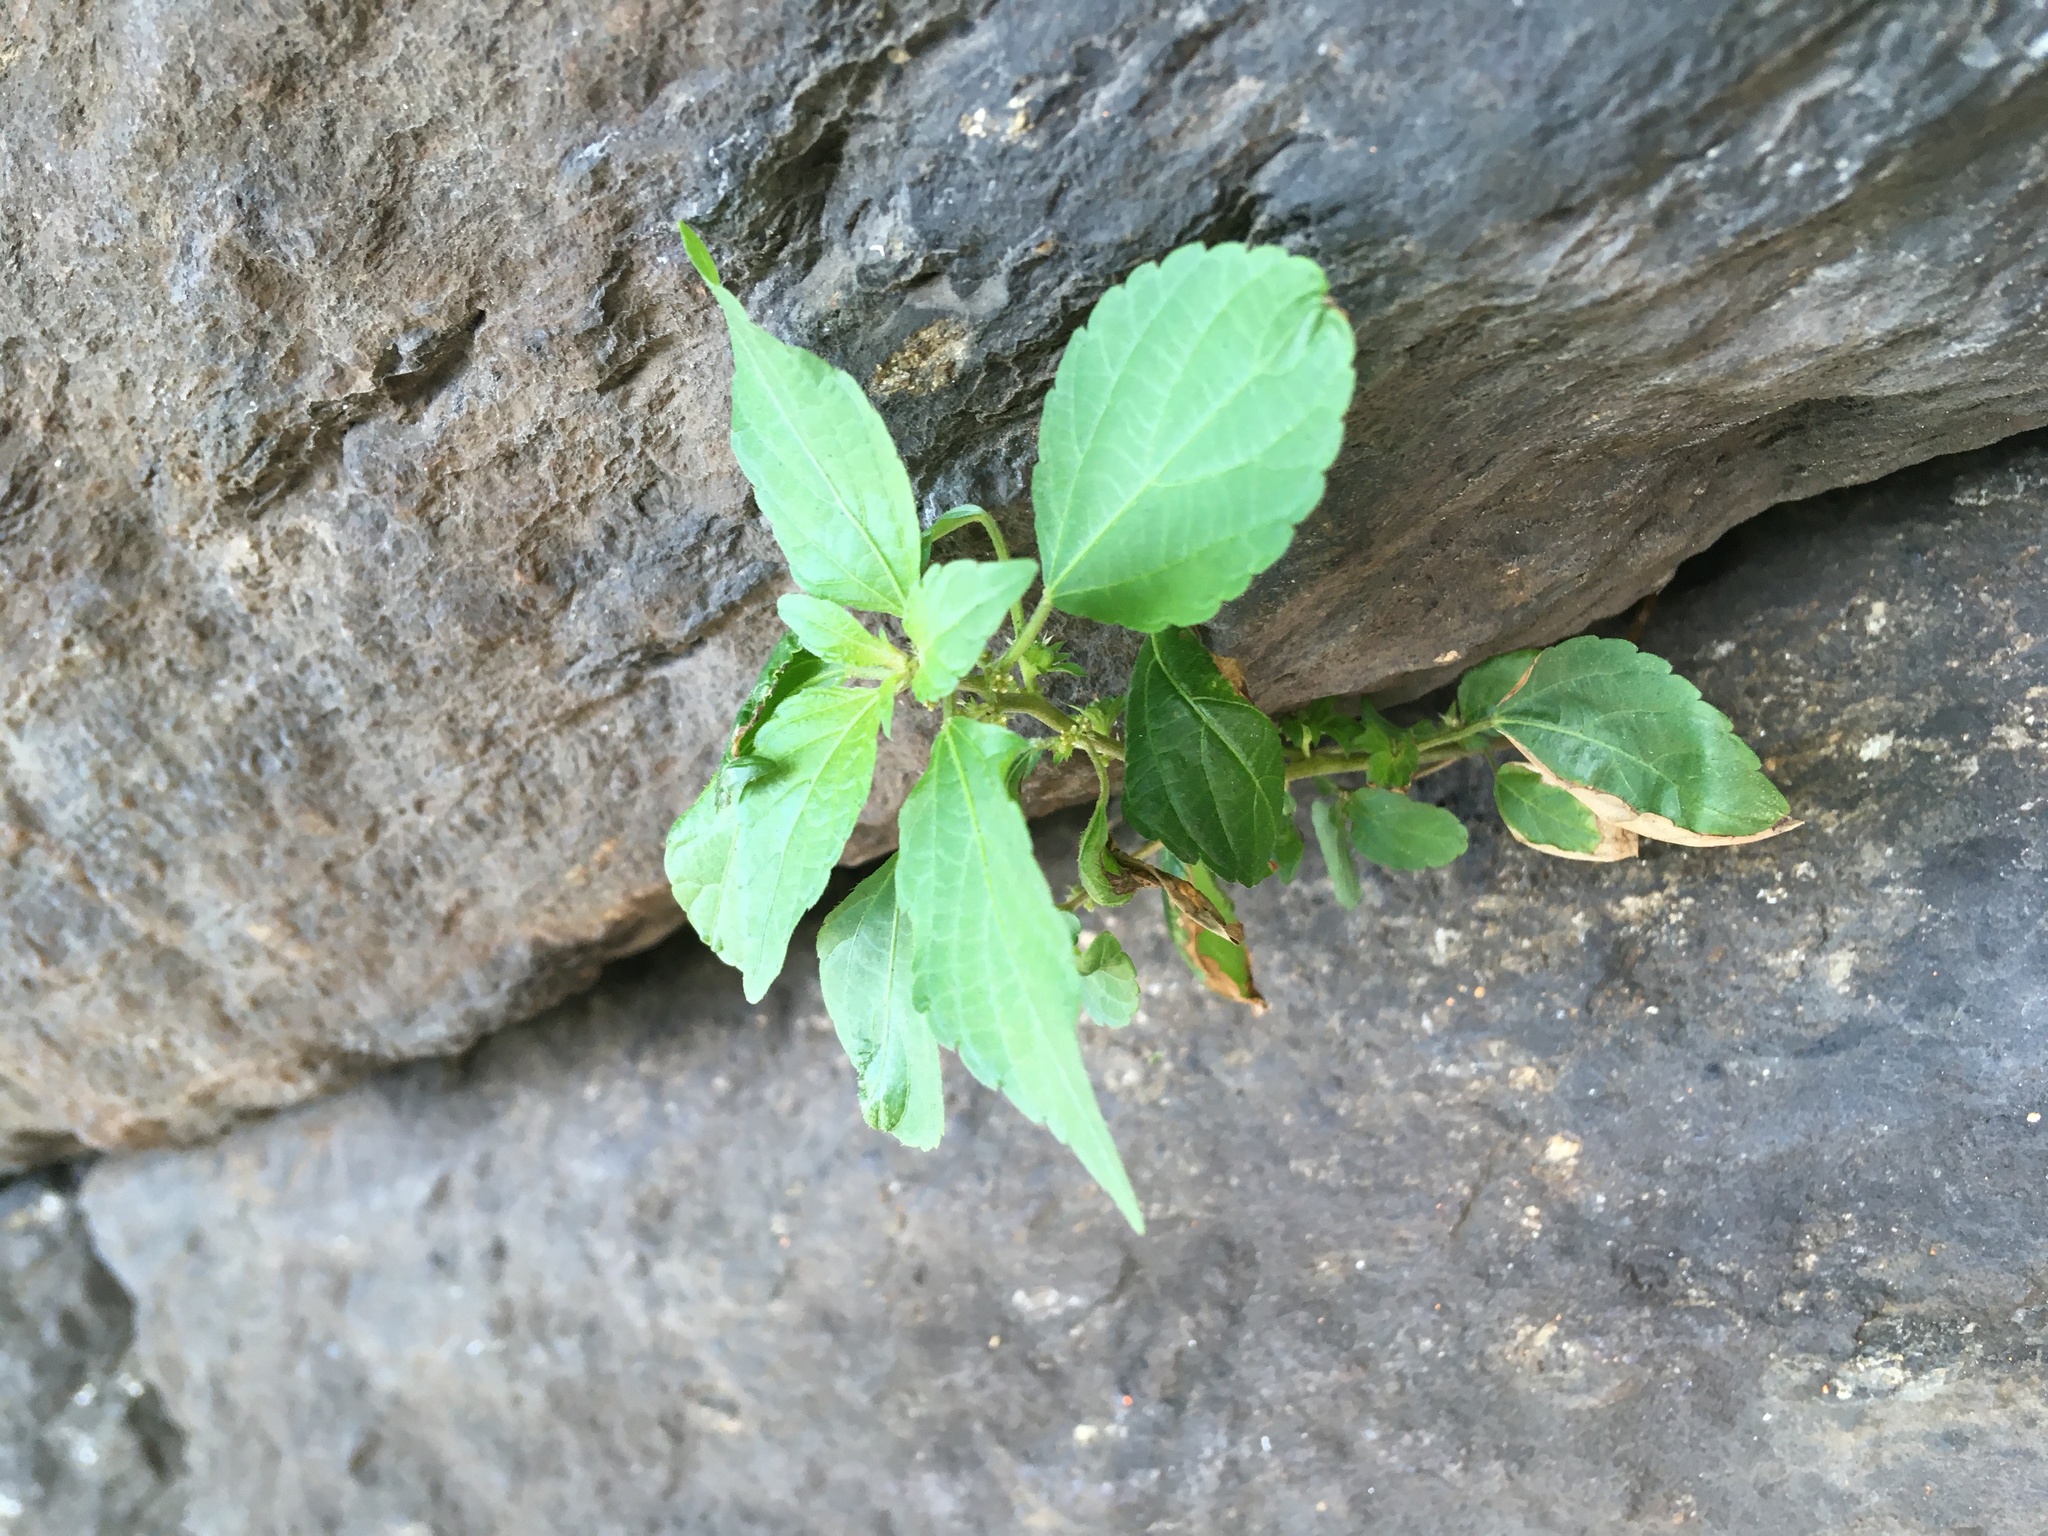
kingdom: Plantae
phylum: Tracheophyta
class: Magnoliopsida
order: Malpighiales
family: Euphorbiaceae
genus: Acalypha
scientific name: Acalypha rhomboidea
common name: Rhombic copperleaf
